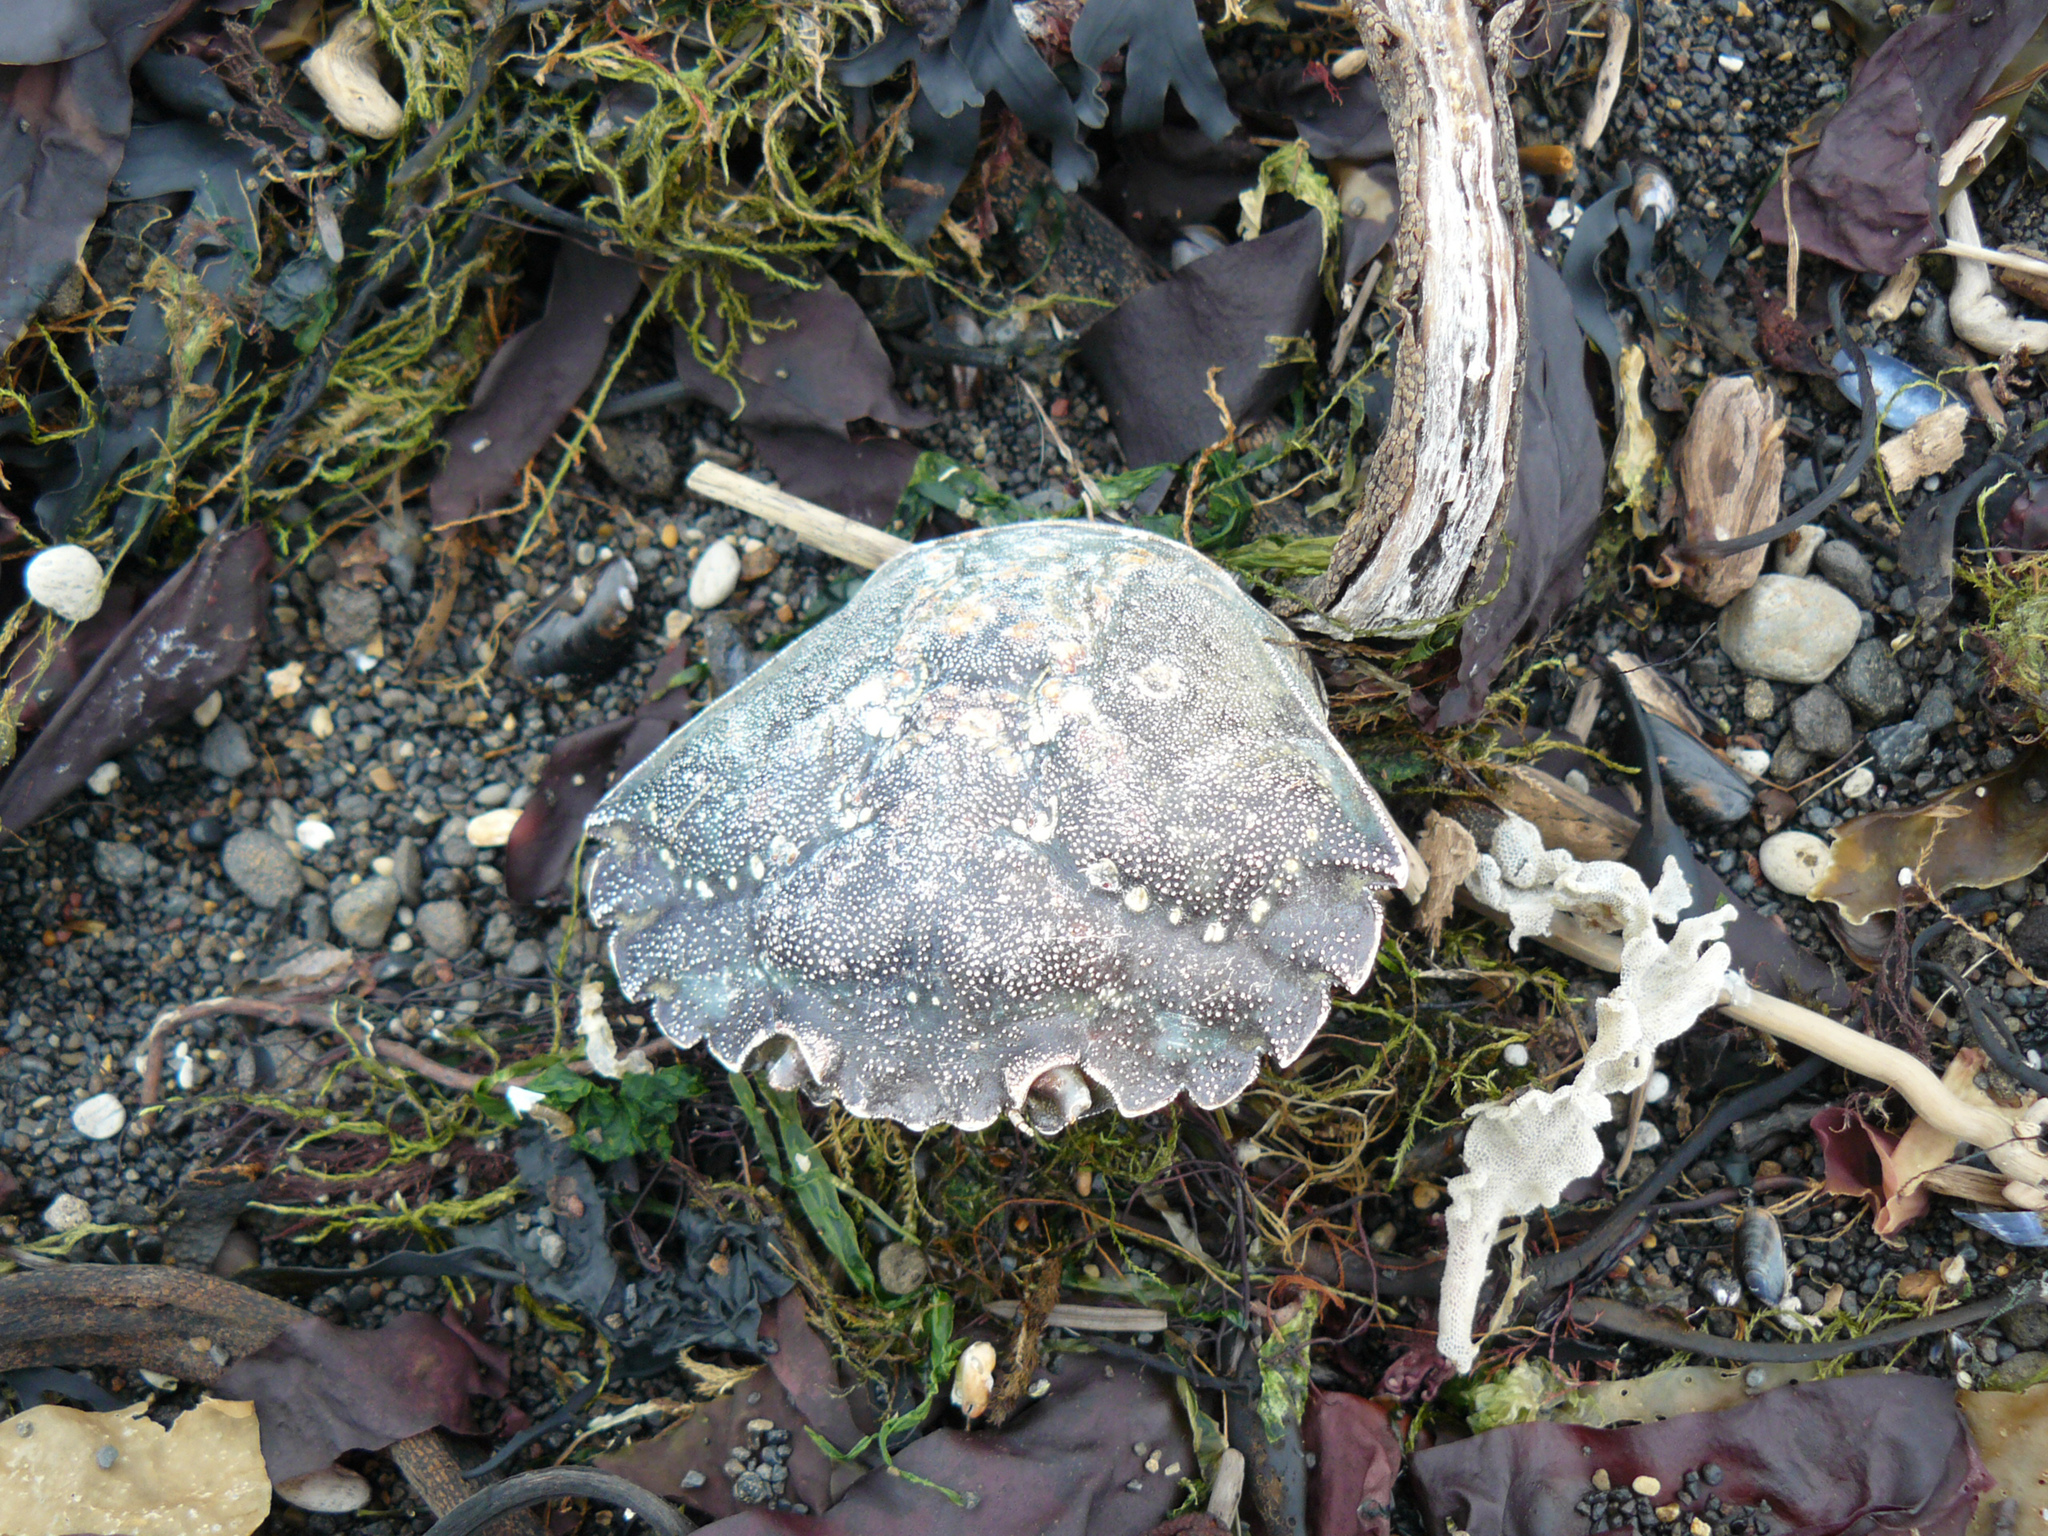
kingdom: Animalia
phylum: Arthropoda
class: Malacostraca
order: Decapoda
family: Carcinidae
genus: Carcinus
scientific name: Carcinus maenas
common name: European green crab
